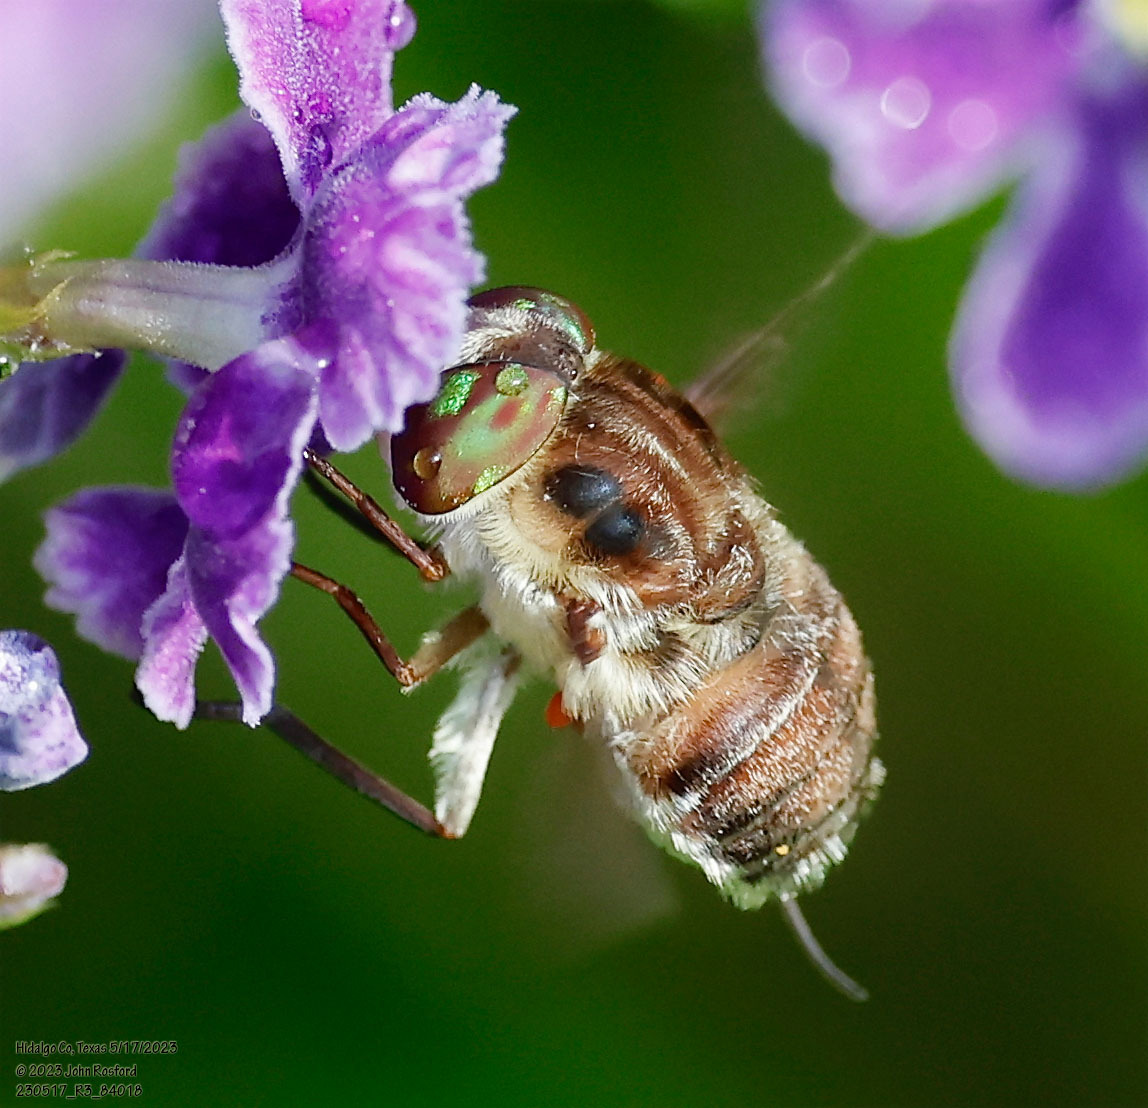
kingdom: Animalia
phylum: Arthropoda
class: Insecta
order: Diptera
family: Nemestrinidae
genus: Neorhynchocephalus
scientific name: Neorhynchocephalus volaticus
